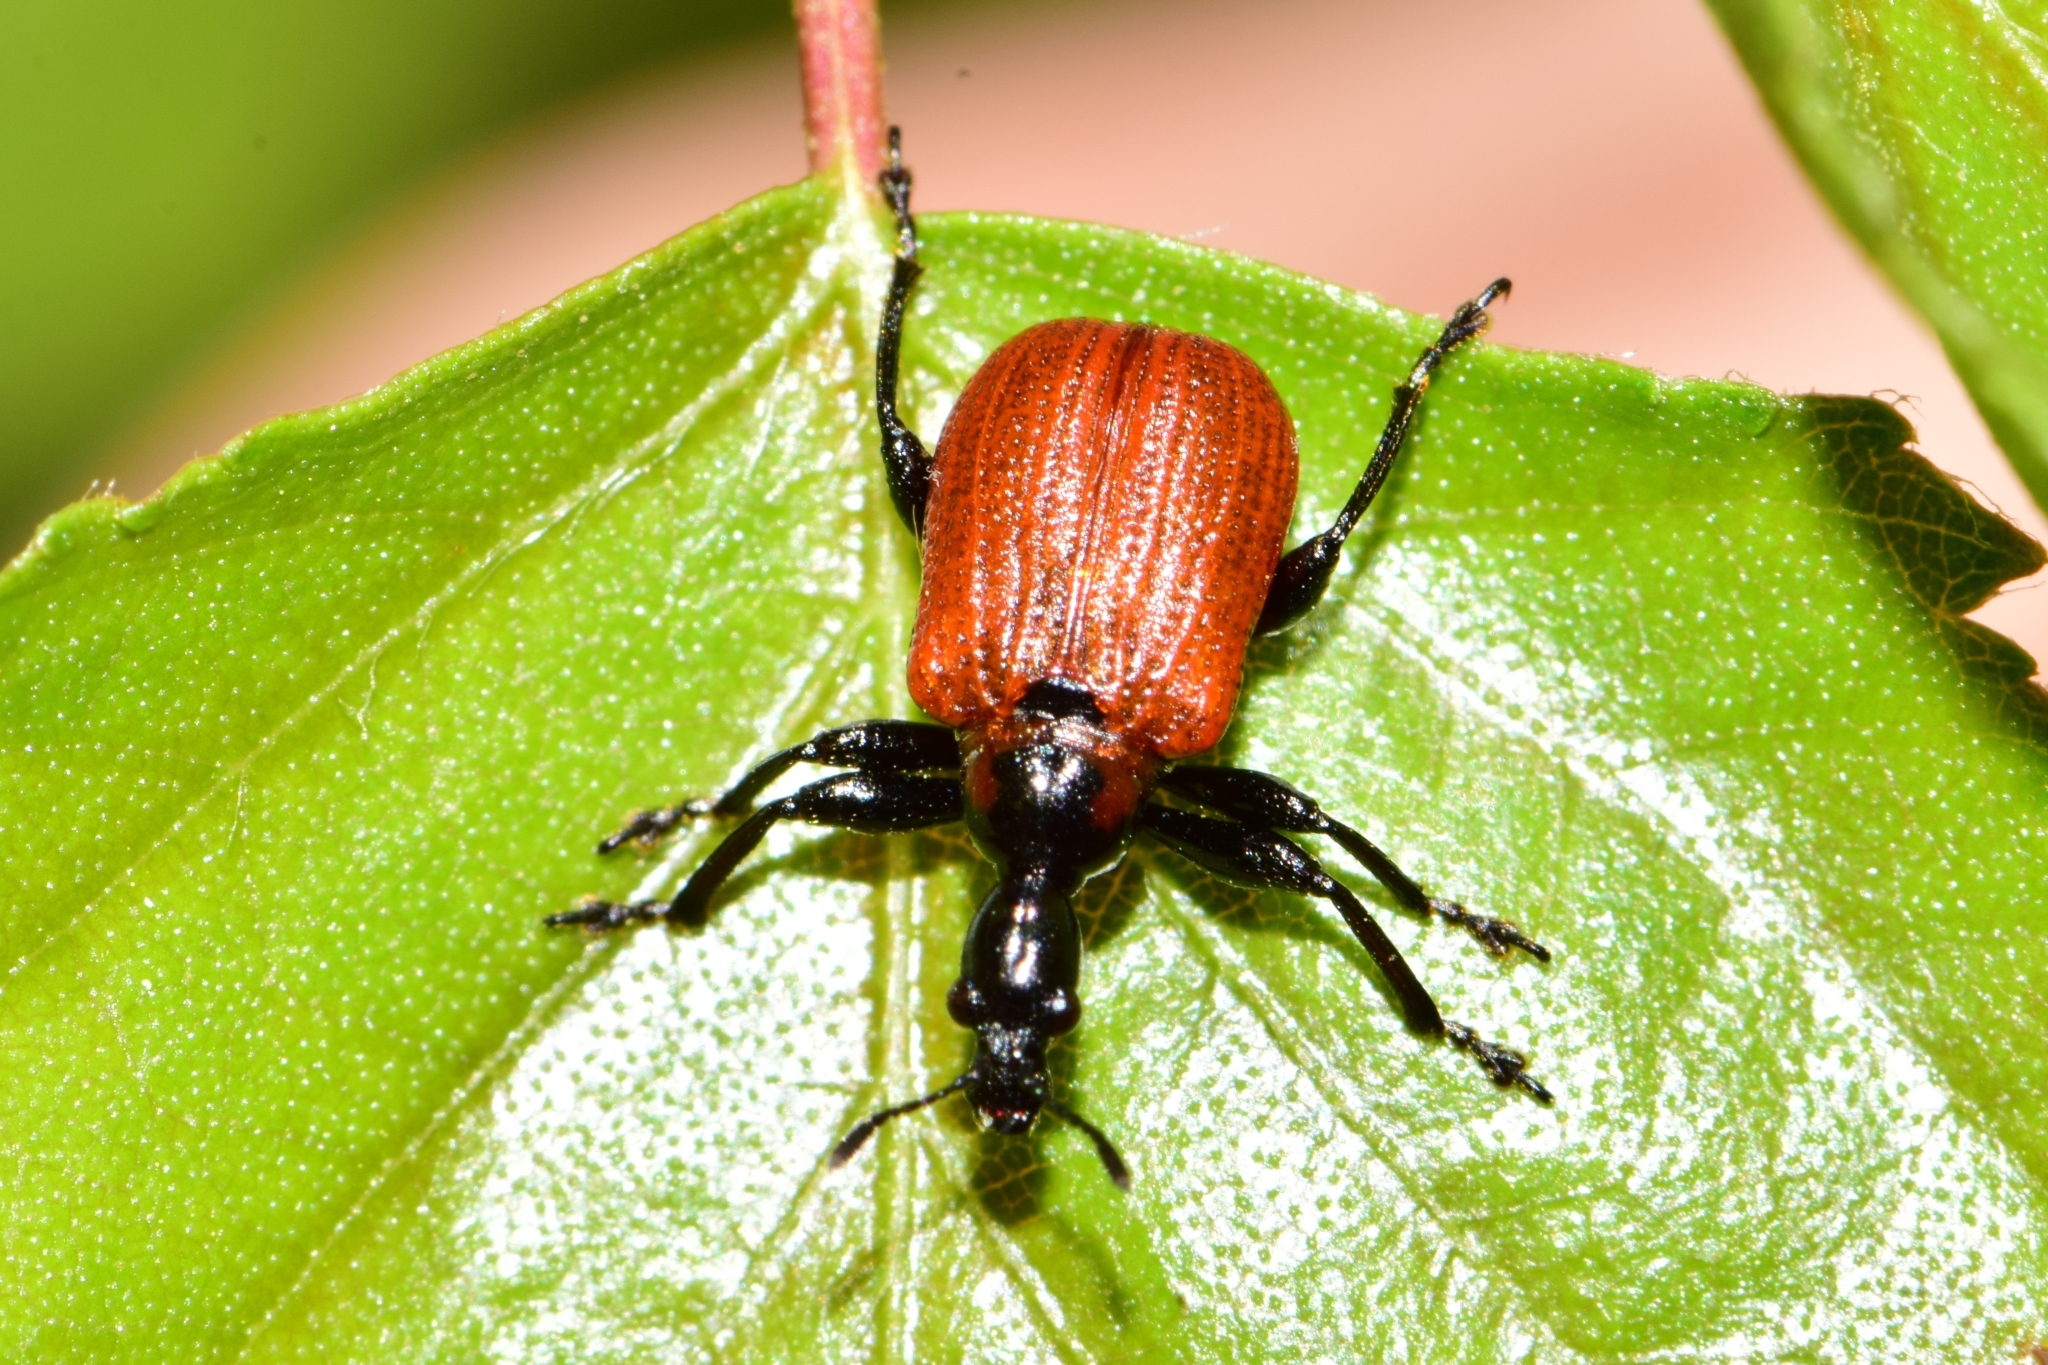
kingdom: Animalia
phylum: Arthropoda
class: Insecta
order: Coleoptera
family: Attelabidae
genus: Apoderus
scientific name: Apoderus coryli
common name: Hazel leaf roller
